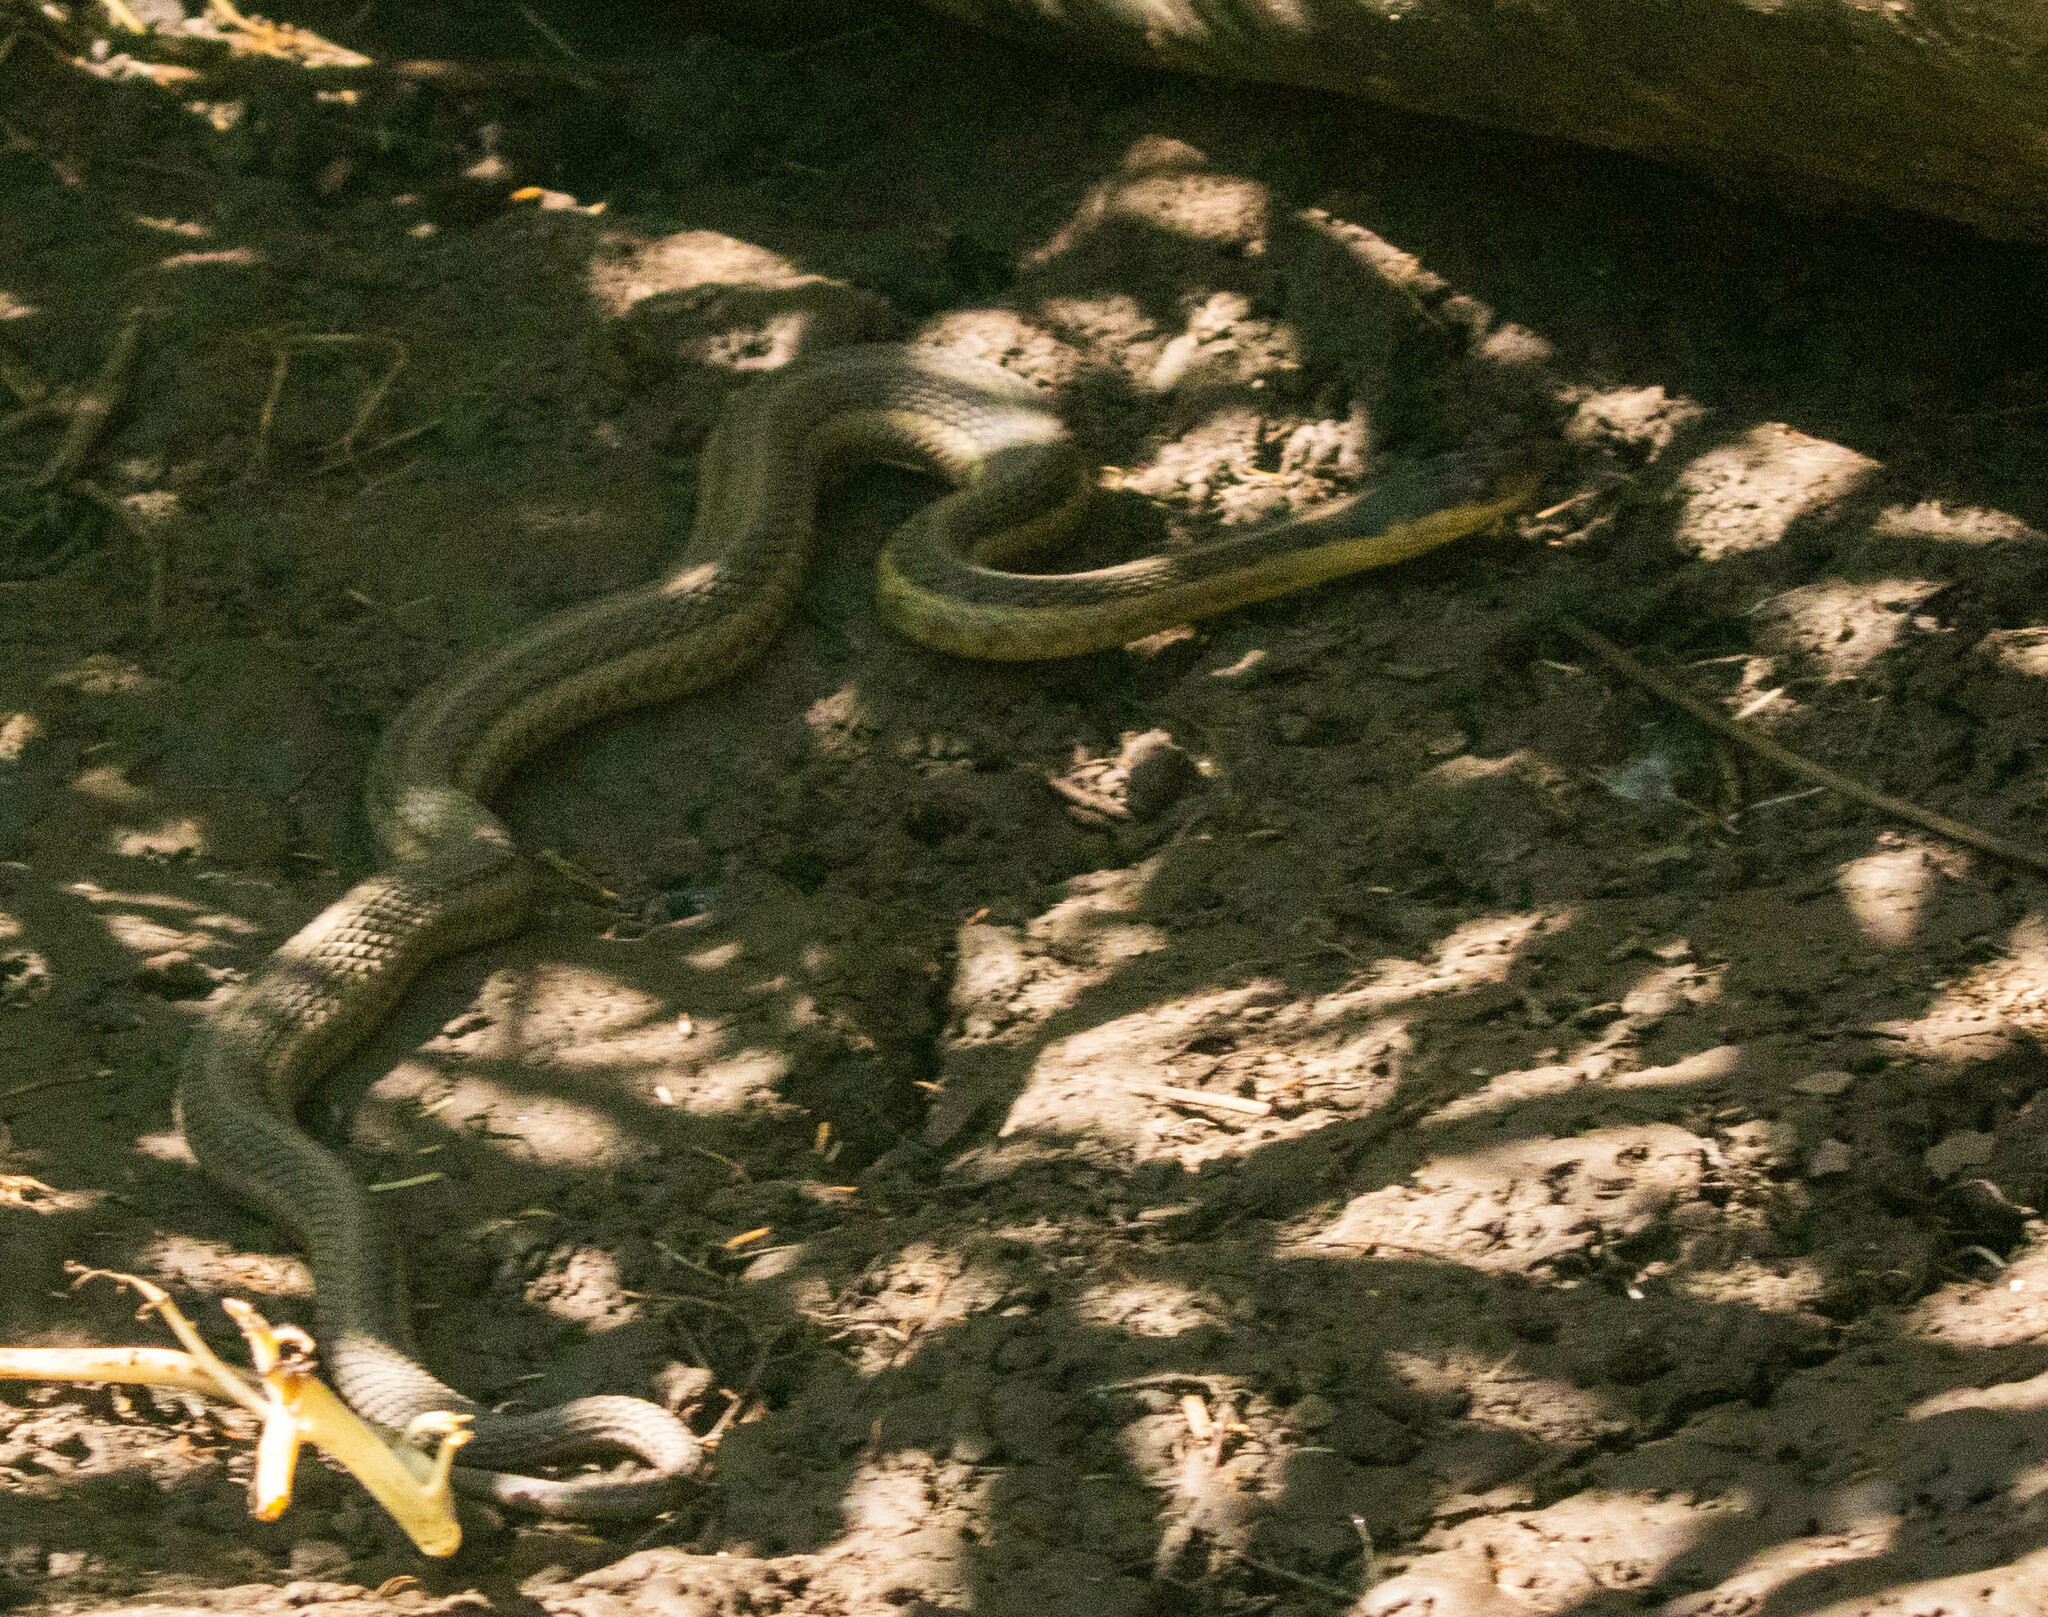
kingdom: Animalia
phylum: Chordata
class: Squamata
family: Colubridae
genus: Thamnophis
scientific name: Thamnophis sirtalis
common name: Common garter snake
